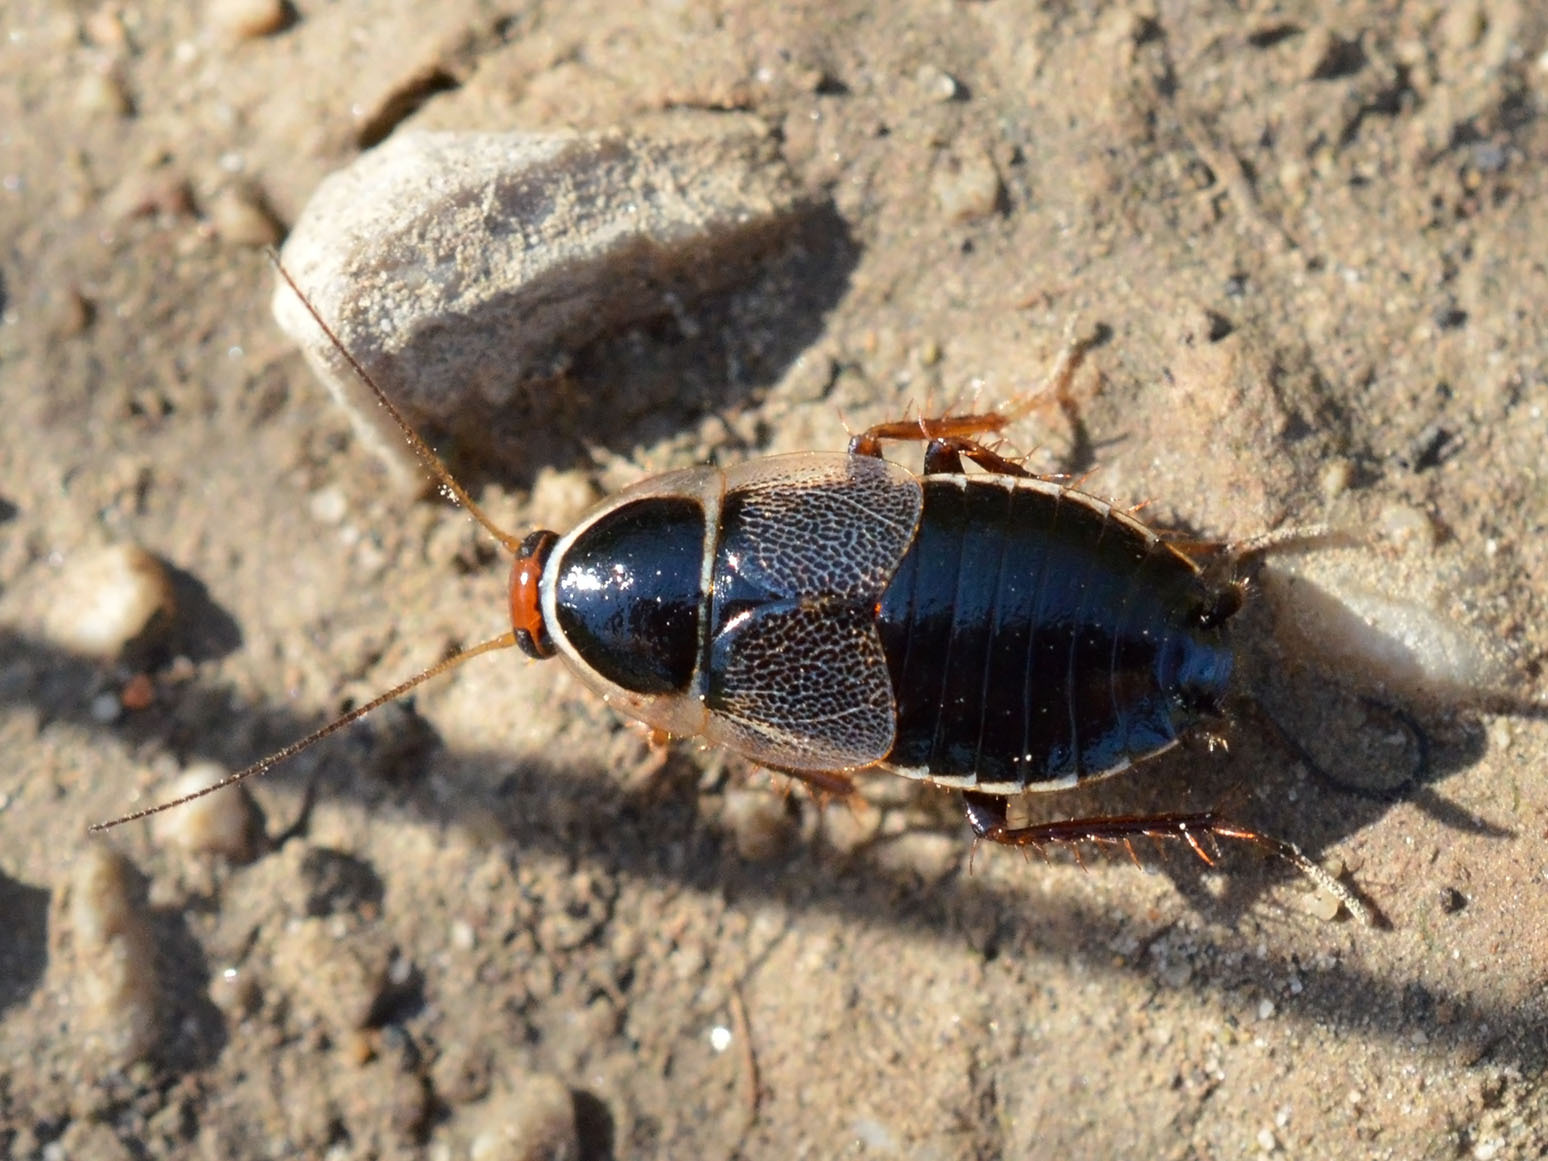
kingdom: Animalia
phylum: Arthropoda
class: Insecta
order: Blattodea
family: Ectobiidae
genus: Phyllodromica
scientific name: Phyllodromica megerlei
